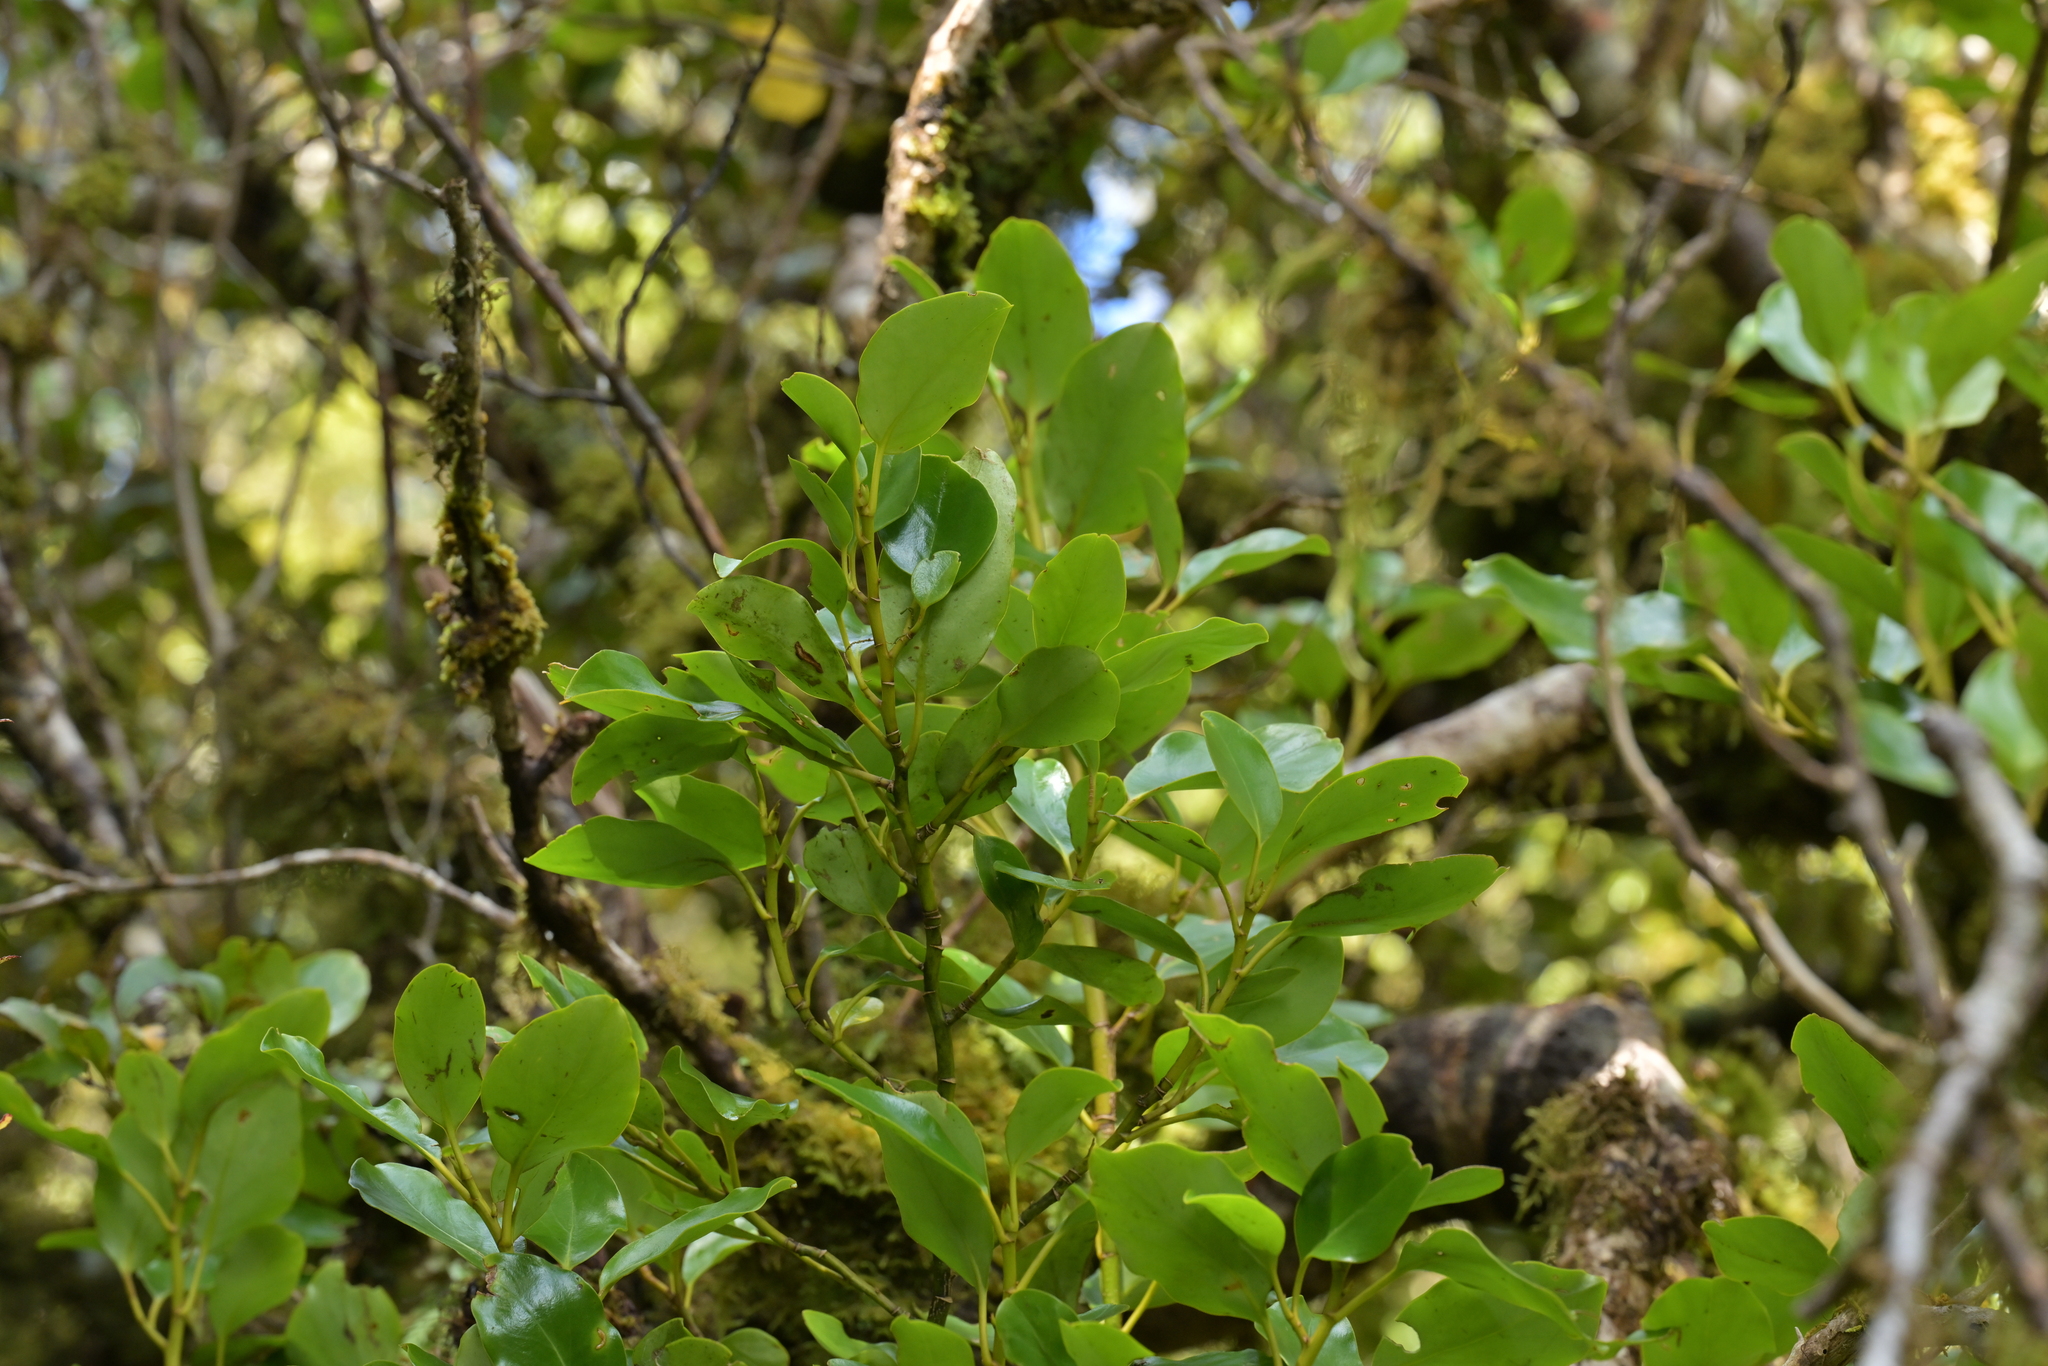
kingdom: Plantae
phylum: Tracheophyta
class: Magnoliopsida
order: Apiales
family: Griseliniaceae
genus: Griselinia
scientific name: Griselinia littoralis
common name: New zealand broadleaf
